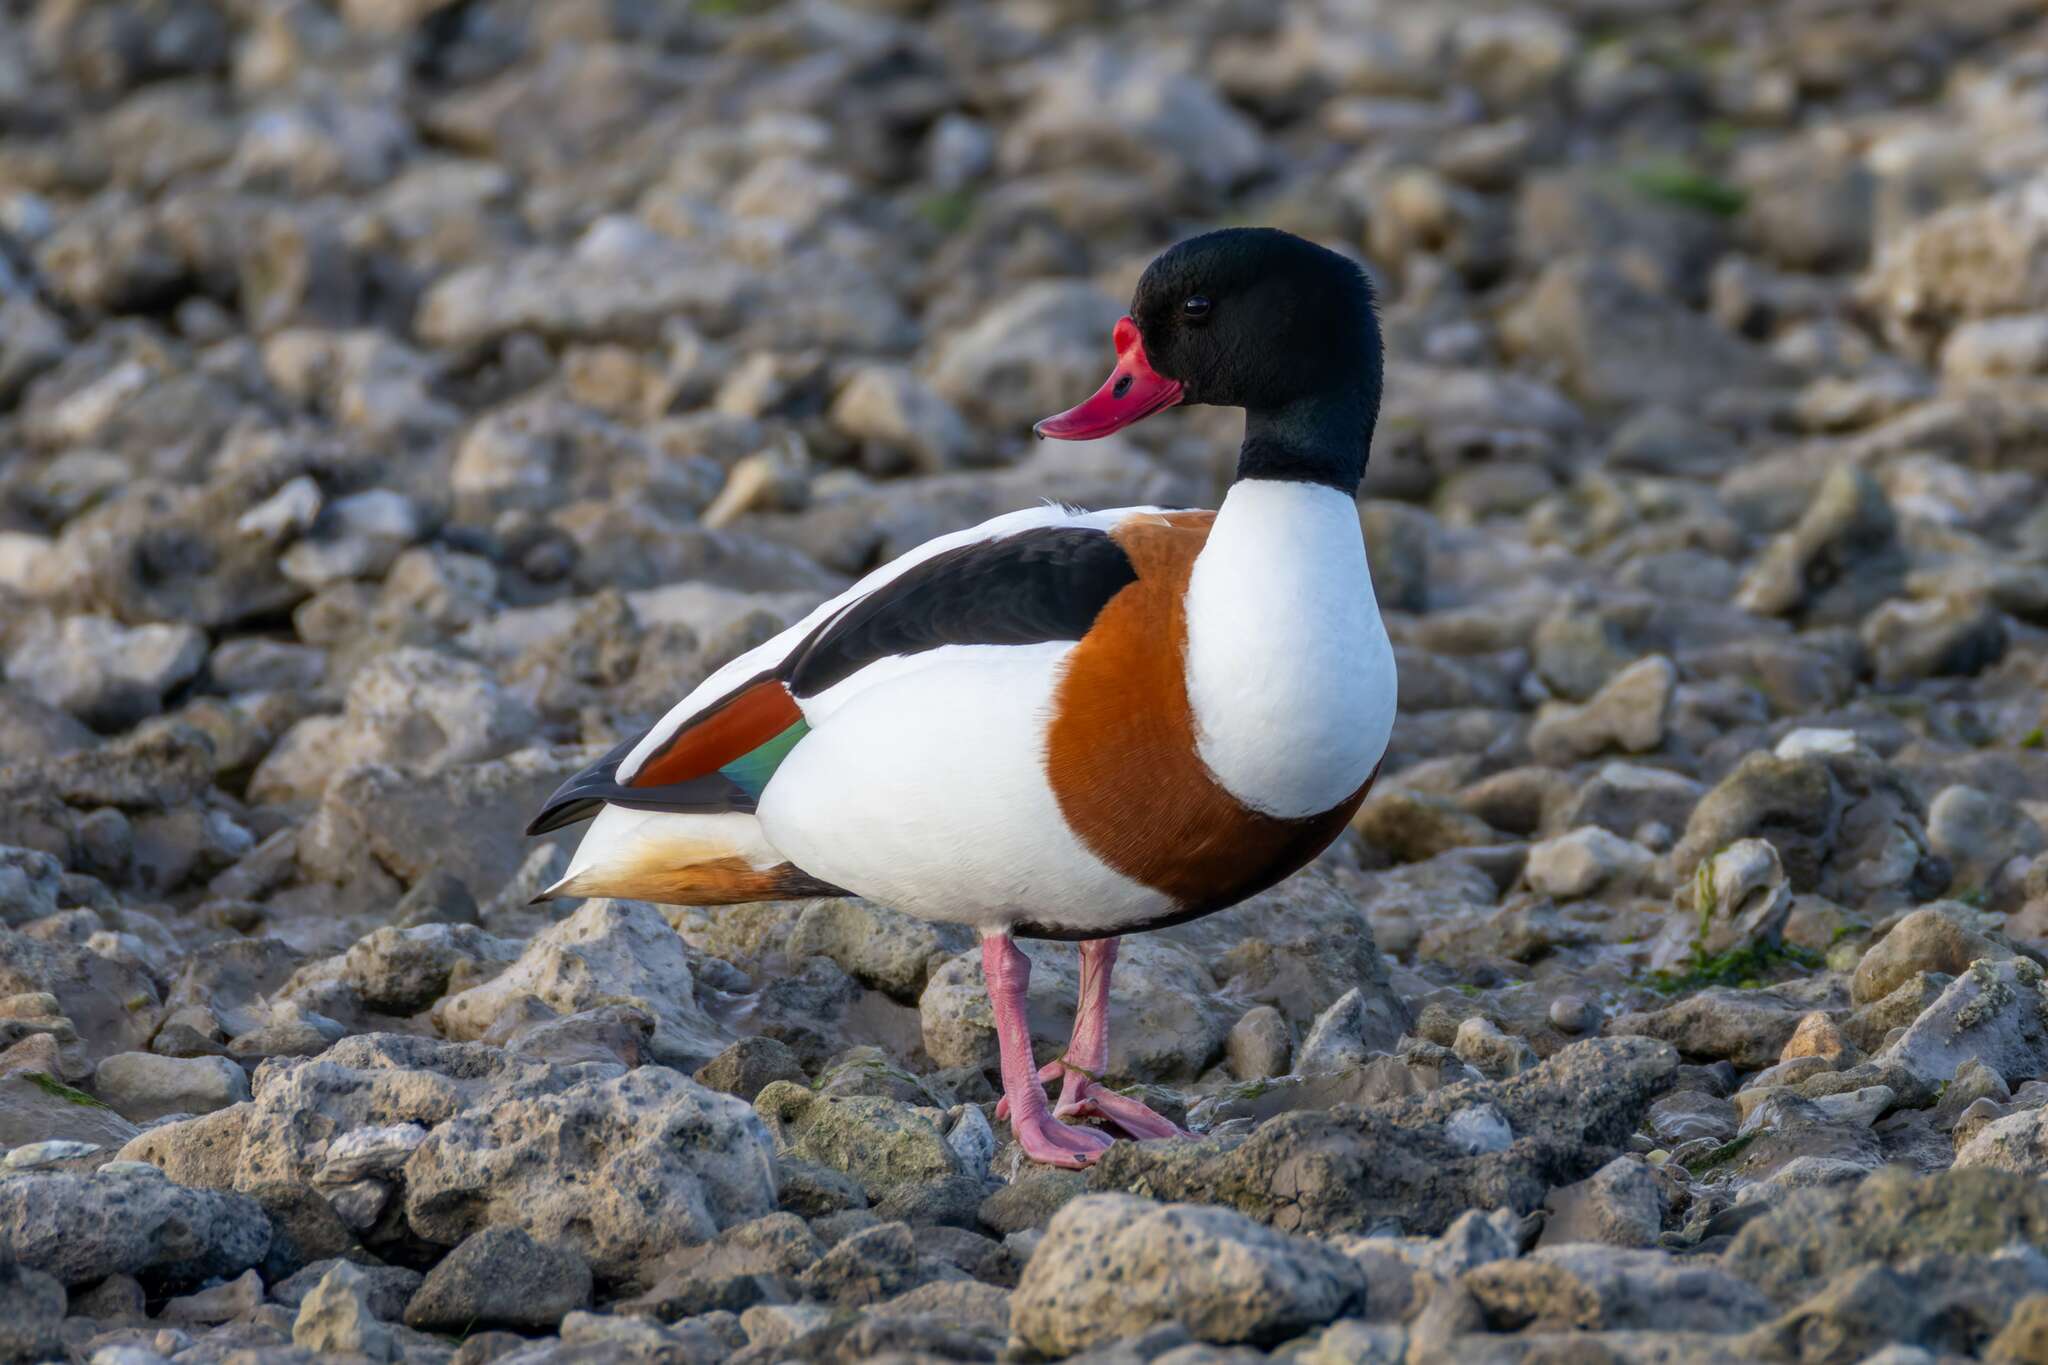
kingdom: Animalia
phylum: Chordata
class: Aves
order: Anseriformes
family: Anatidae
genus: Tadorna
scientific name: Tadorna tadorna
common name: Common shelduck
